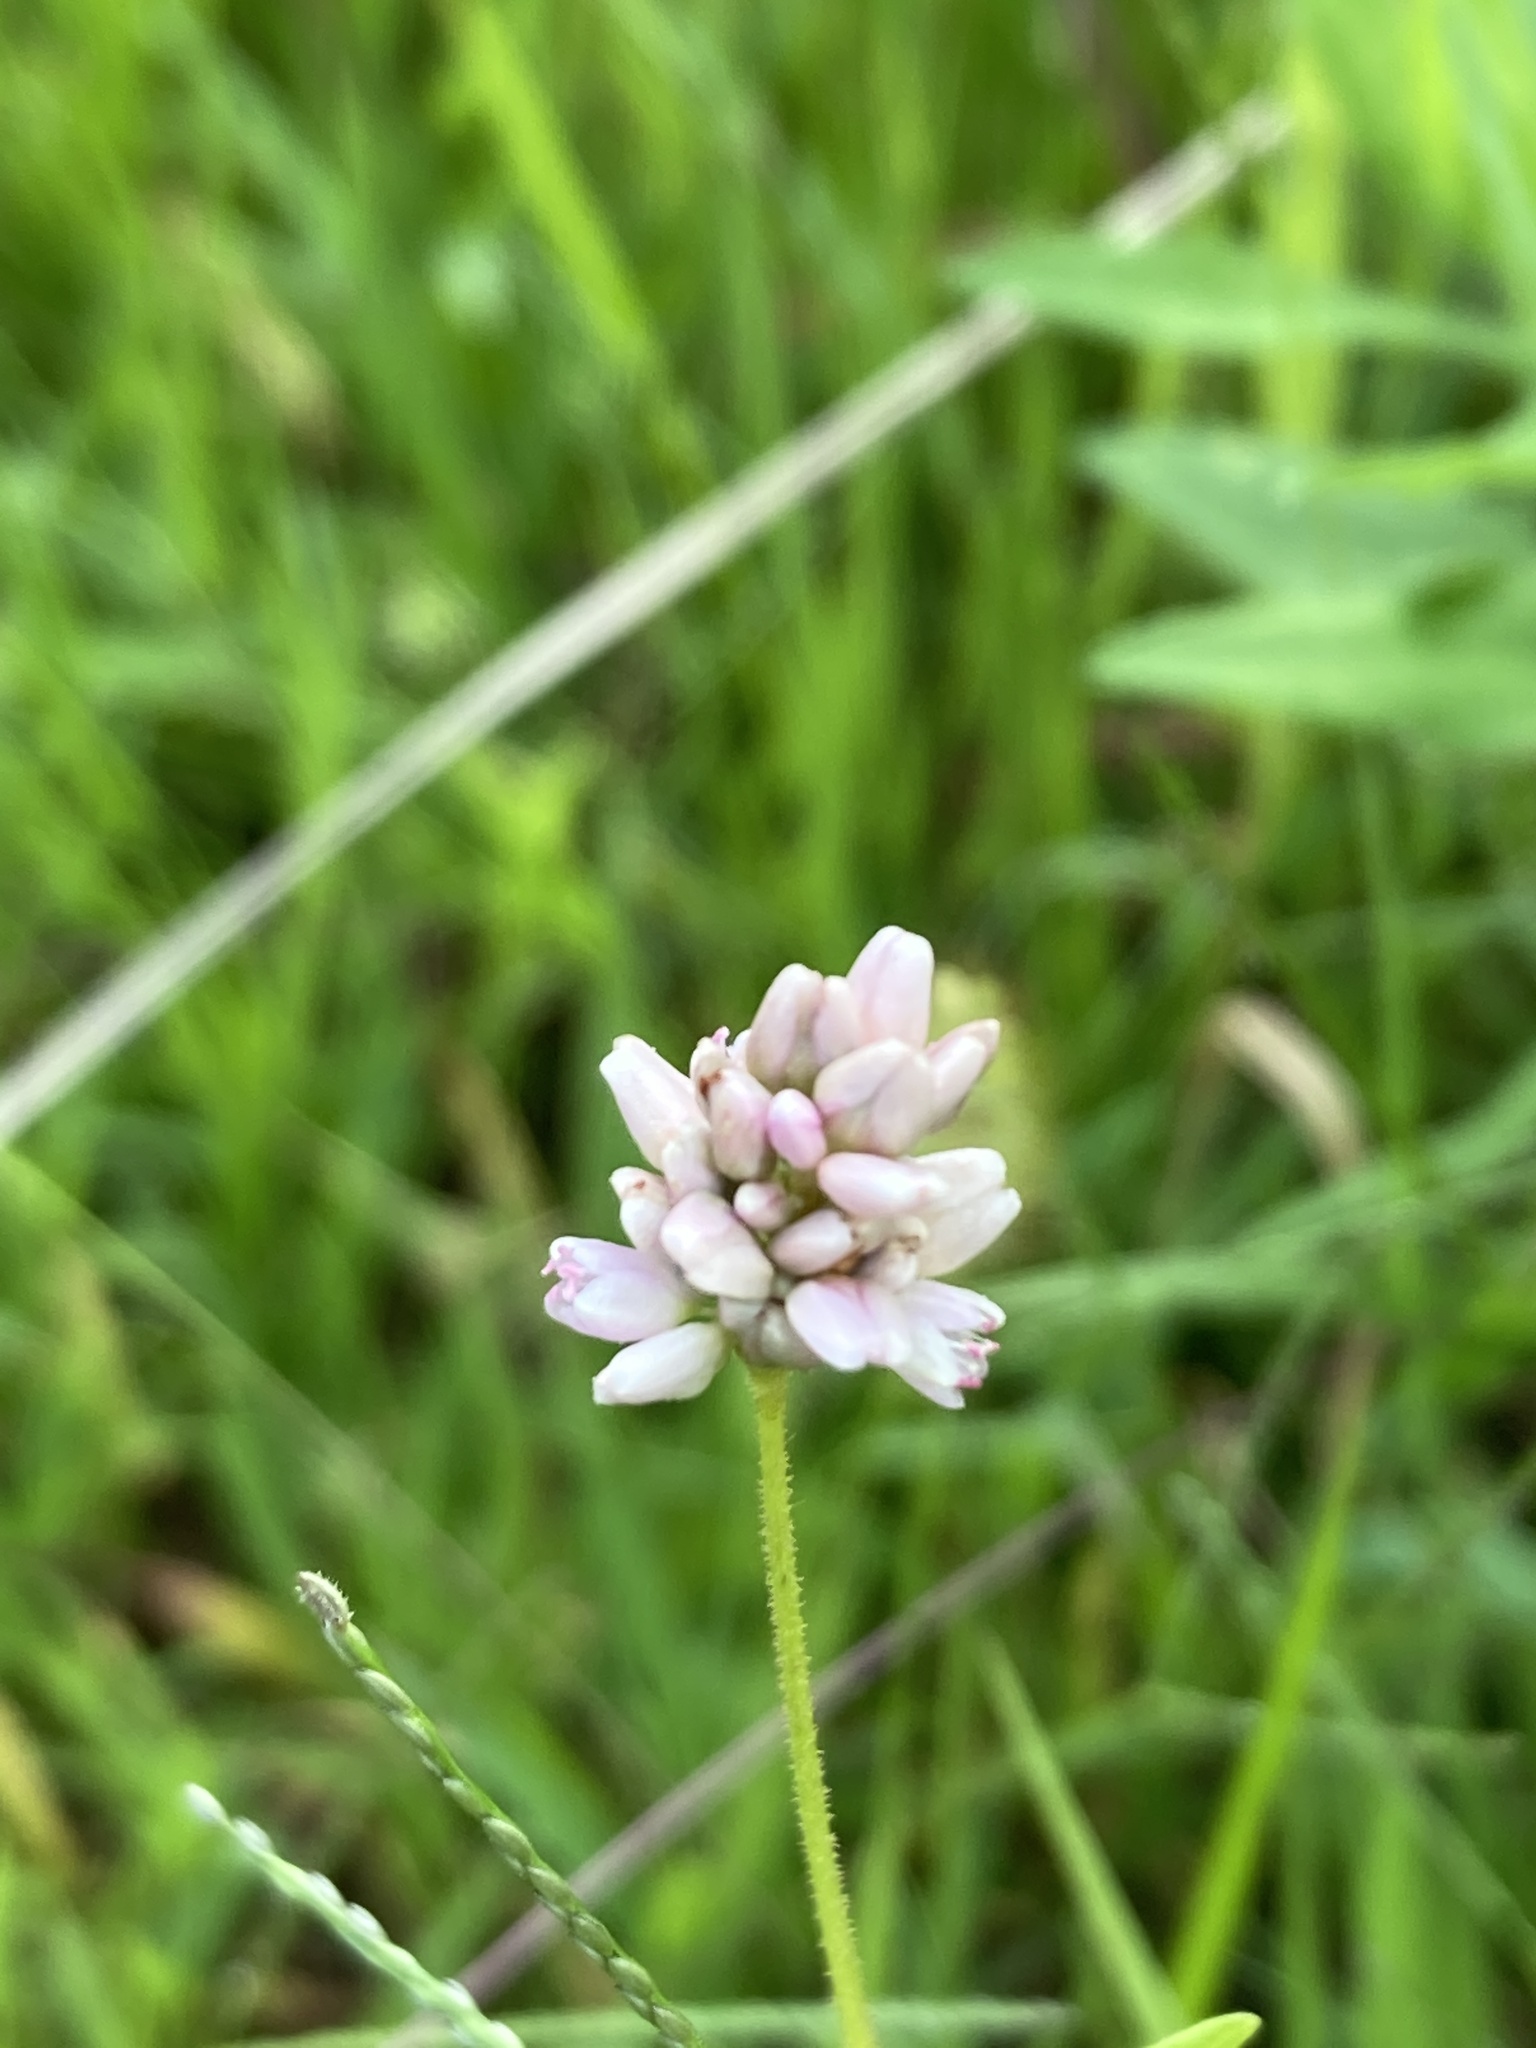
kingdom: Plantae
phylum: Tracheophyta
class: Magnoliopsida
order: Caryophyllales
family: Polygonaceae
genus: Persicaria
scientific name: Persicaria pensylvanica
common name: Pinkweed
